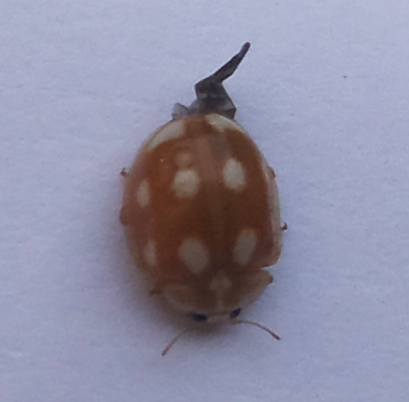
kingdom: Animalia
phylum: Arthropoda
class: Insecta
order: Coleoptera
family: Coccinellidae
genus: Calvia
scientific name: Calvia decemguttata
